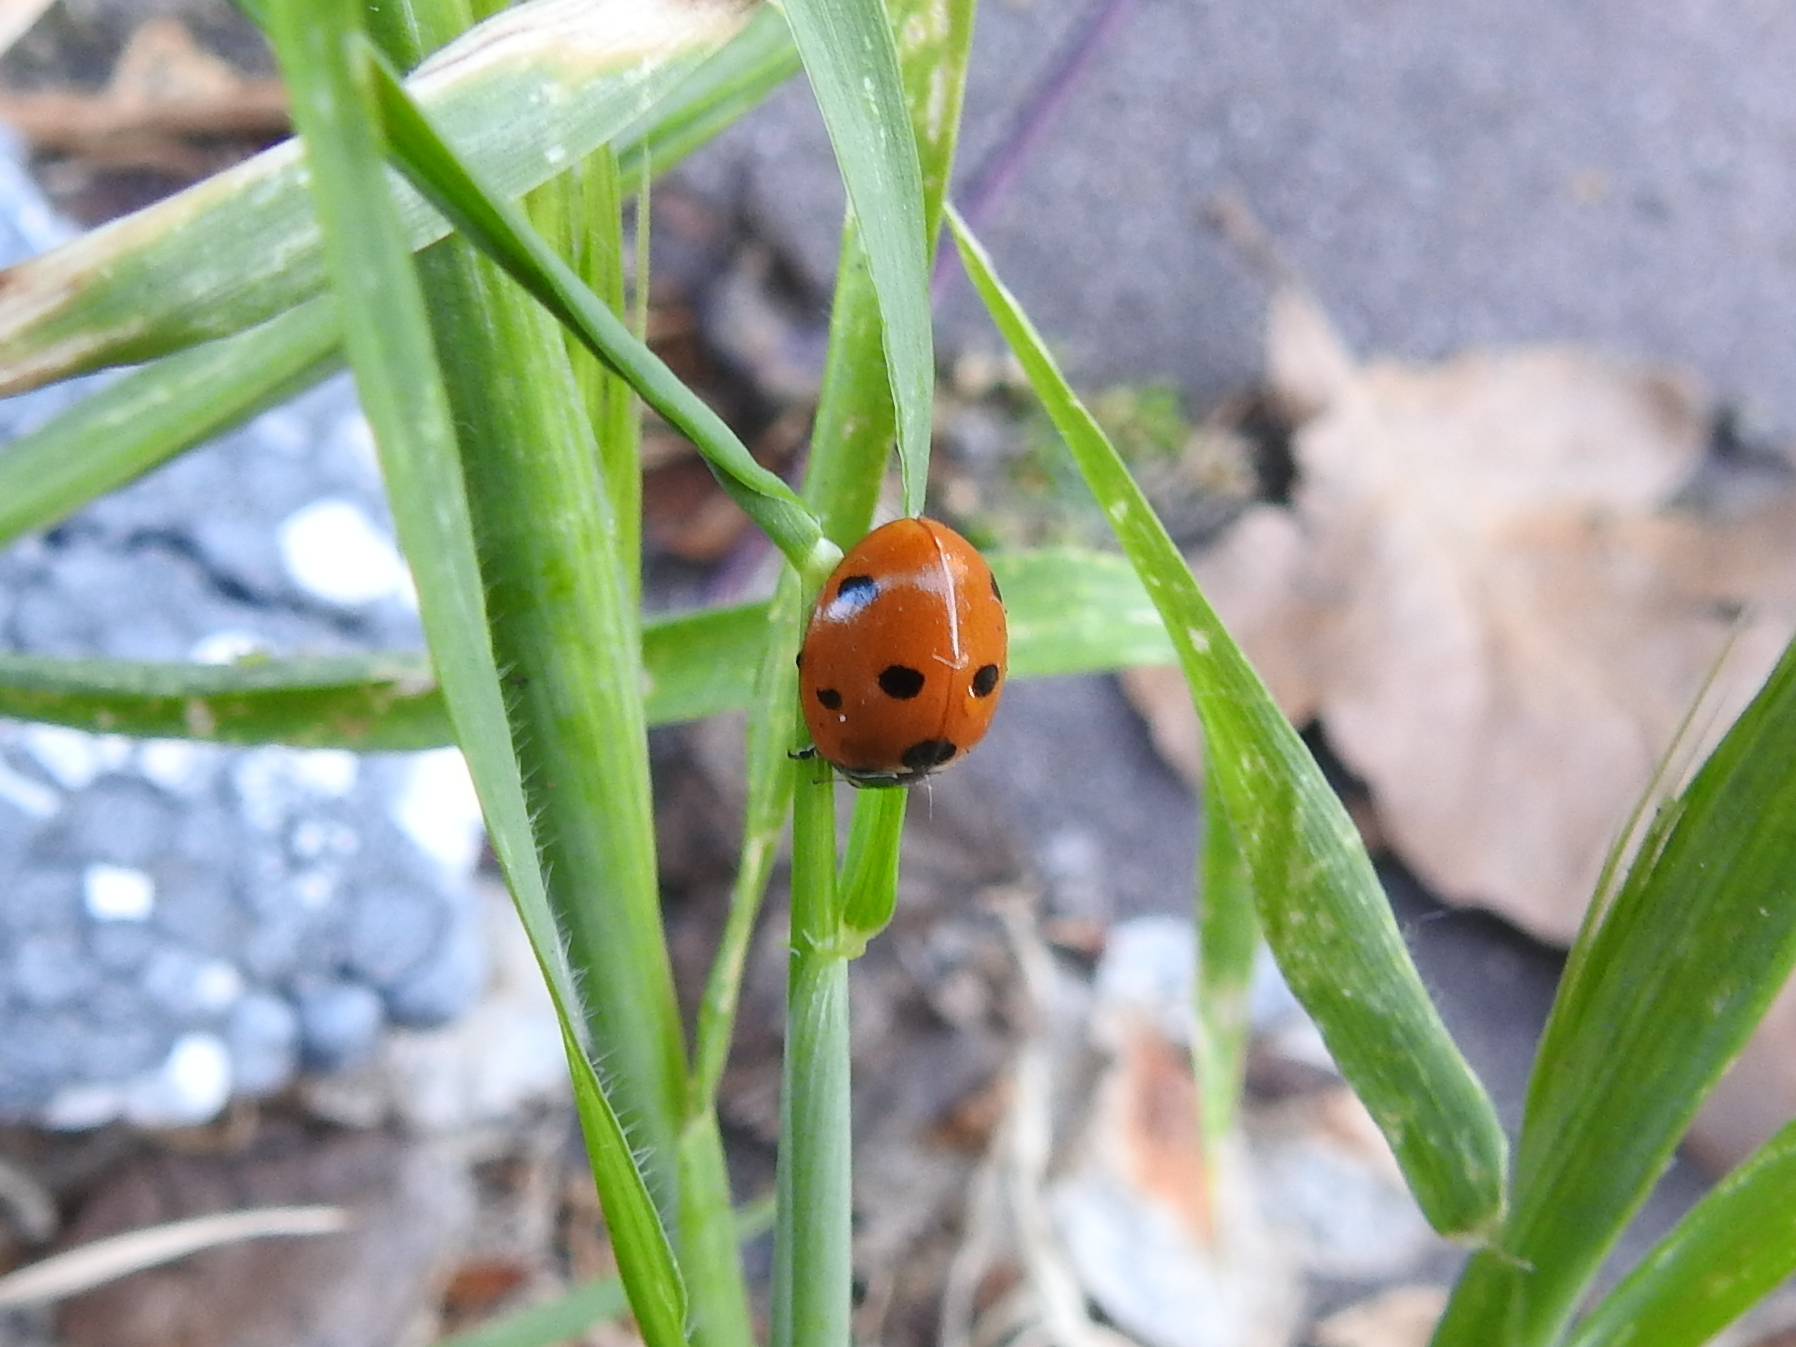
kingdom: Animalia
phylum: Arthropoda
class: Insecta
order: Coleoptera
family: Coccinellidae
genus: Coccinella
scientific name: Coccinella septempunctata
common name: Sevenspotted lady beetle
